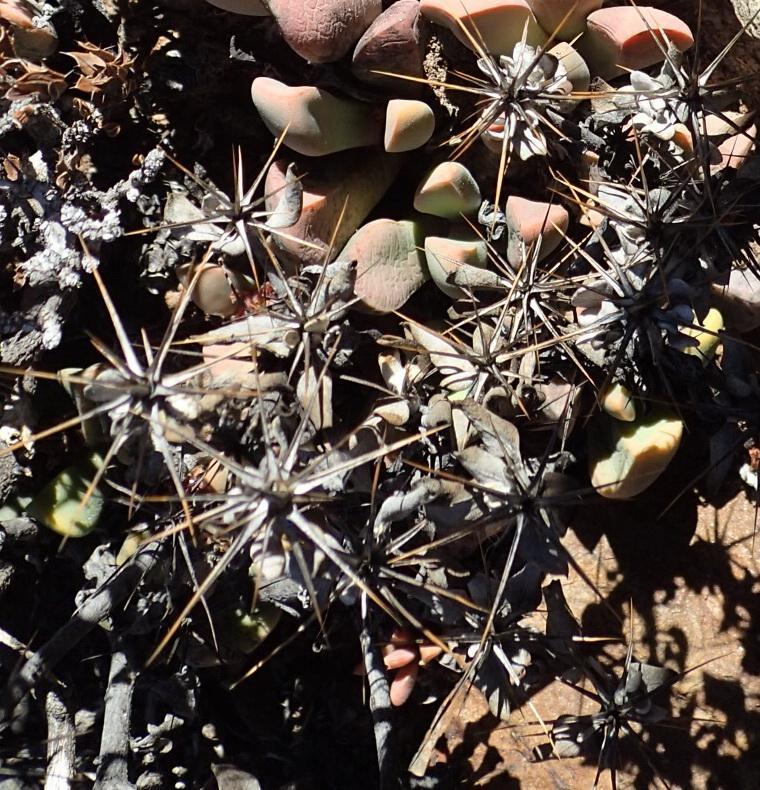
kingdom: Plantae
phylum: Tracheophyta
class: Magnoliopsida
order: Asterales
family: Asteraceae
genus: Macledium
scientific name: Macledium spinosum
